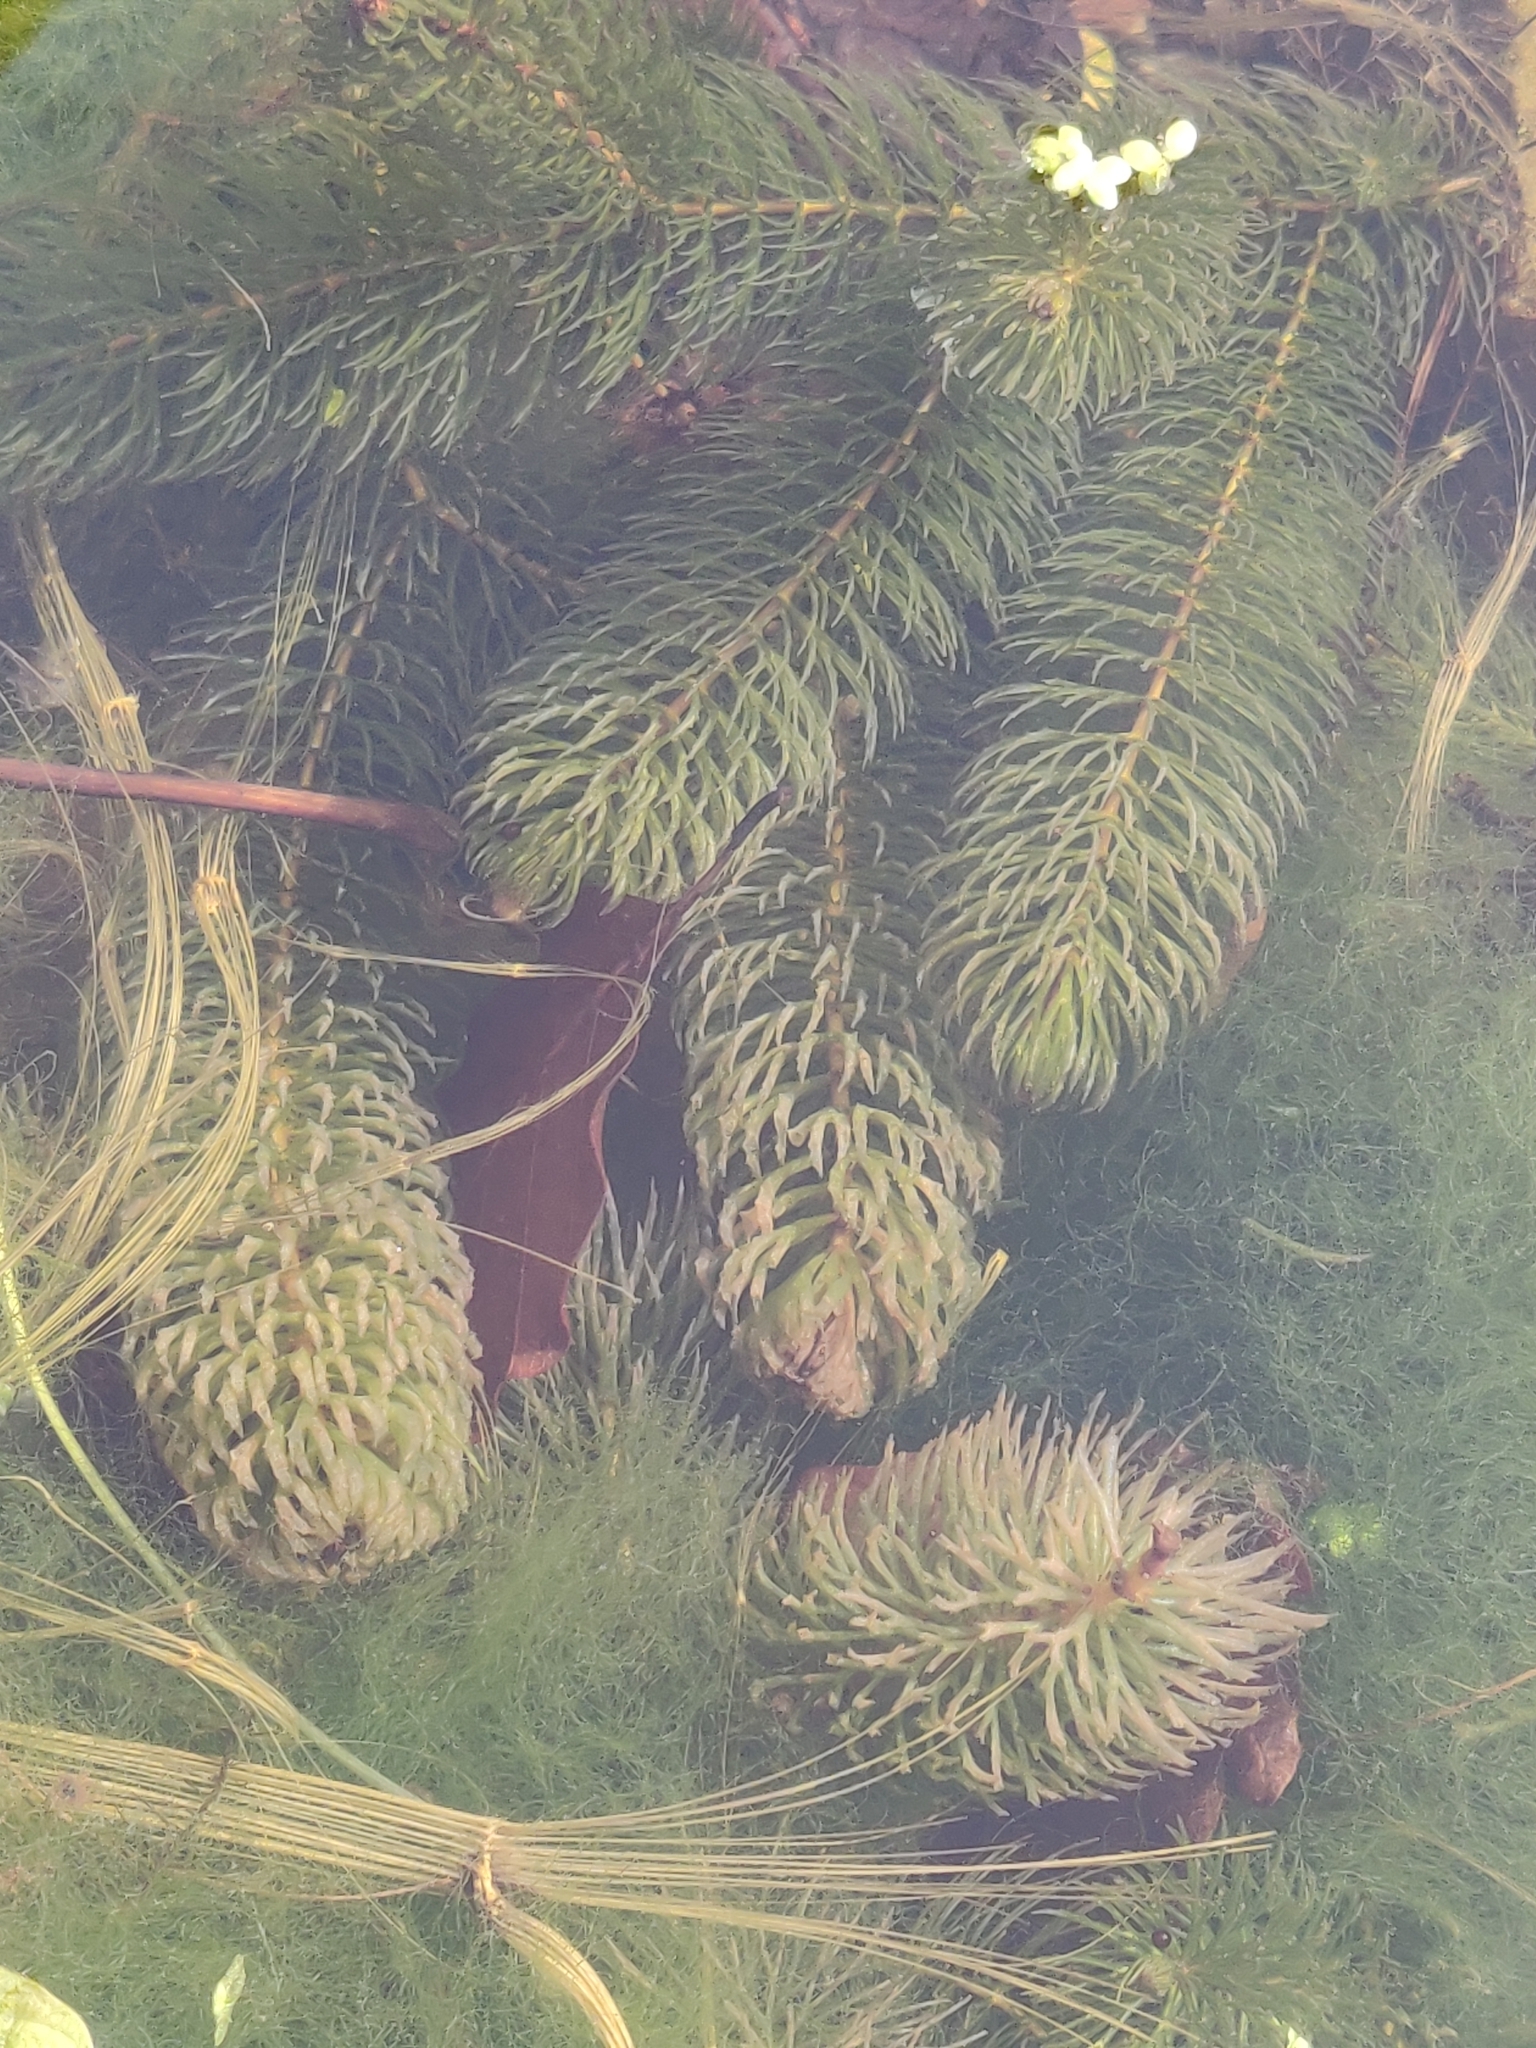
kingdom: Plantae
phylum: Tracheophyta
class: Magnoliopsida
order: Ceratophyllales
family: Ceratophyllaceae
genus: Ceratophyllum
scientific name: Ceratophyllum demersum
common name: Rigid hornwort
